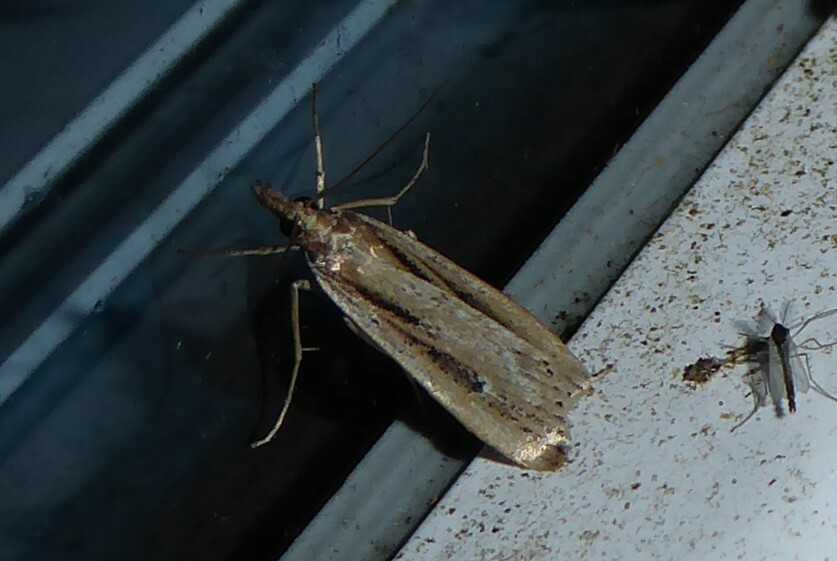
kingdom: Animalia
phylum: Arthropoda
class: Insecta
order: Lepidoptera
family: Crambidae
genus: Eudonia
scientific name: Eudonia sabulosella
